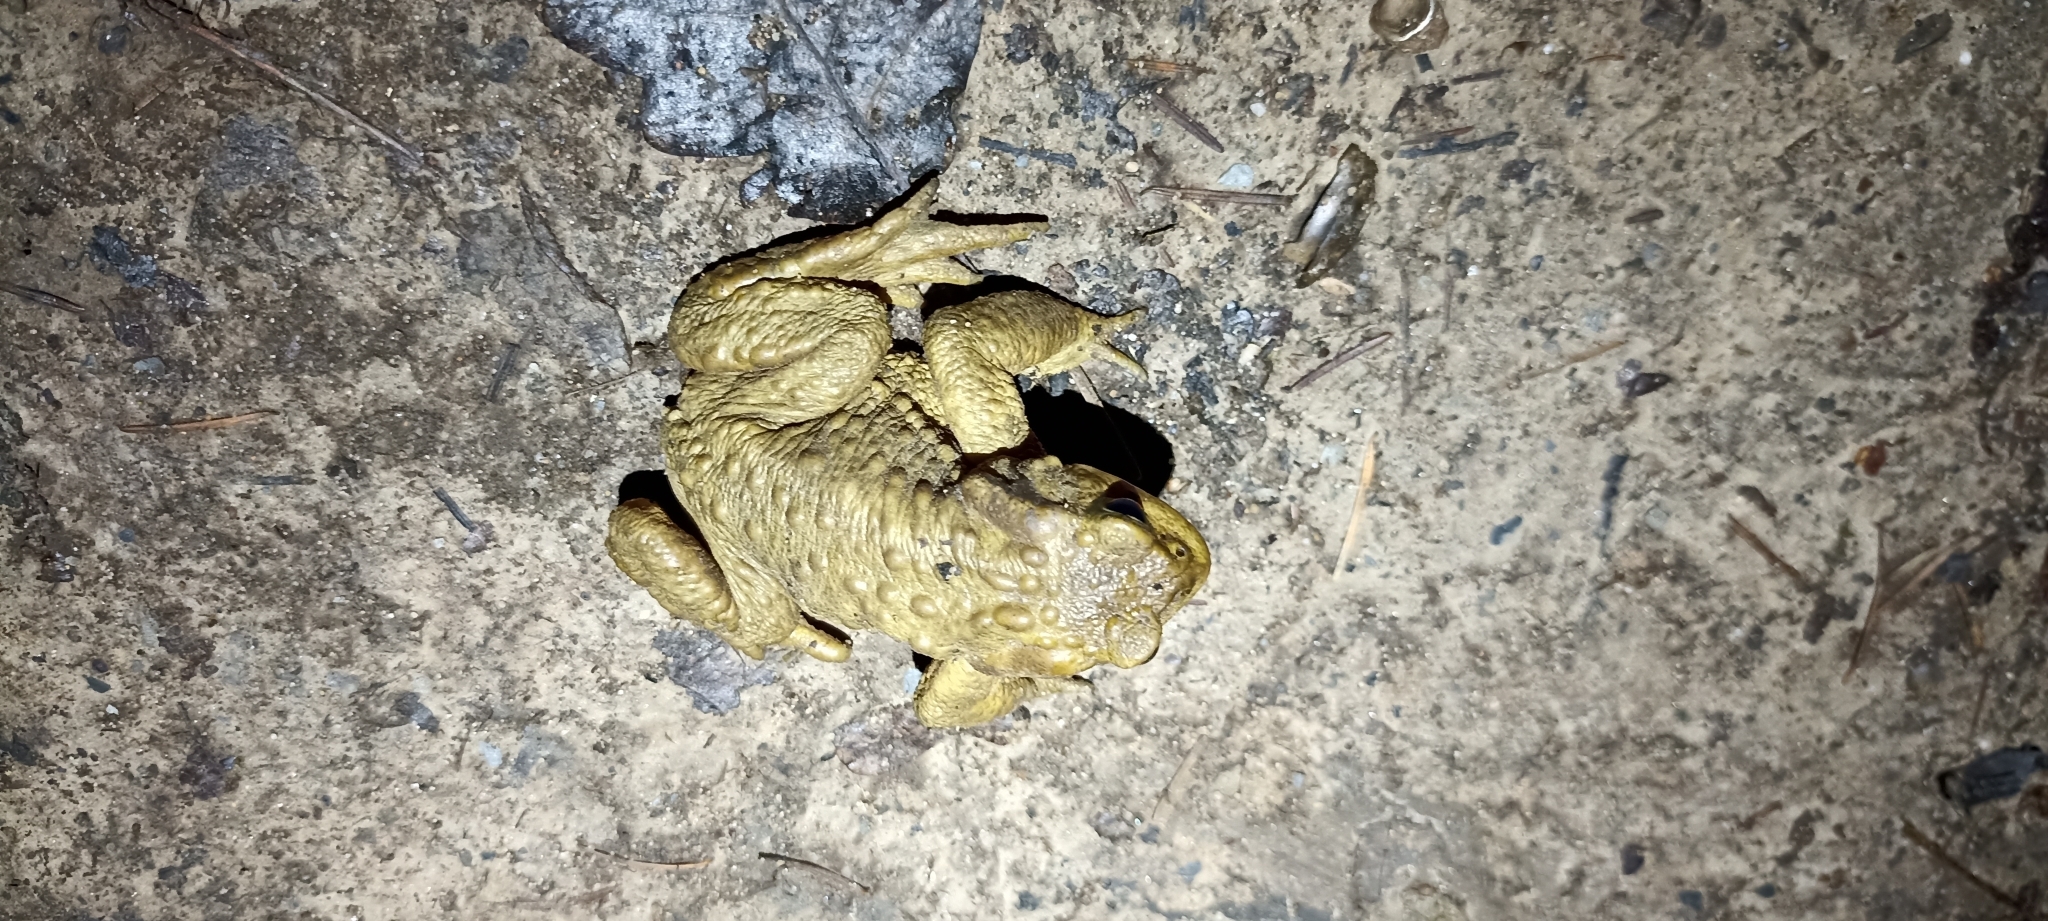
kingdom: Animalia
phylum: Chordata
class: Amphibia
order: Anura
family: Bufonidae
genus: Bufo
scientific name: Bufo spinosus
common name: Western common toad
